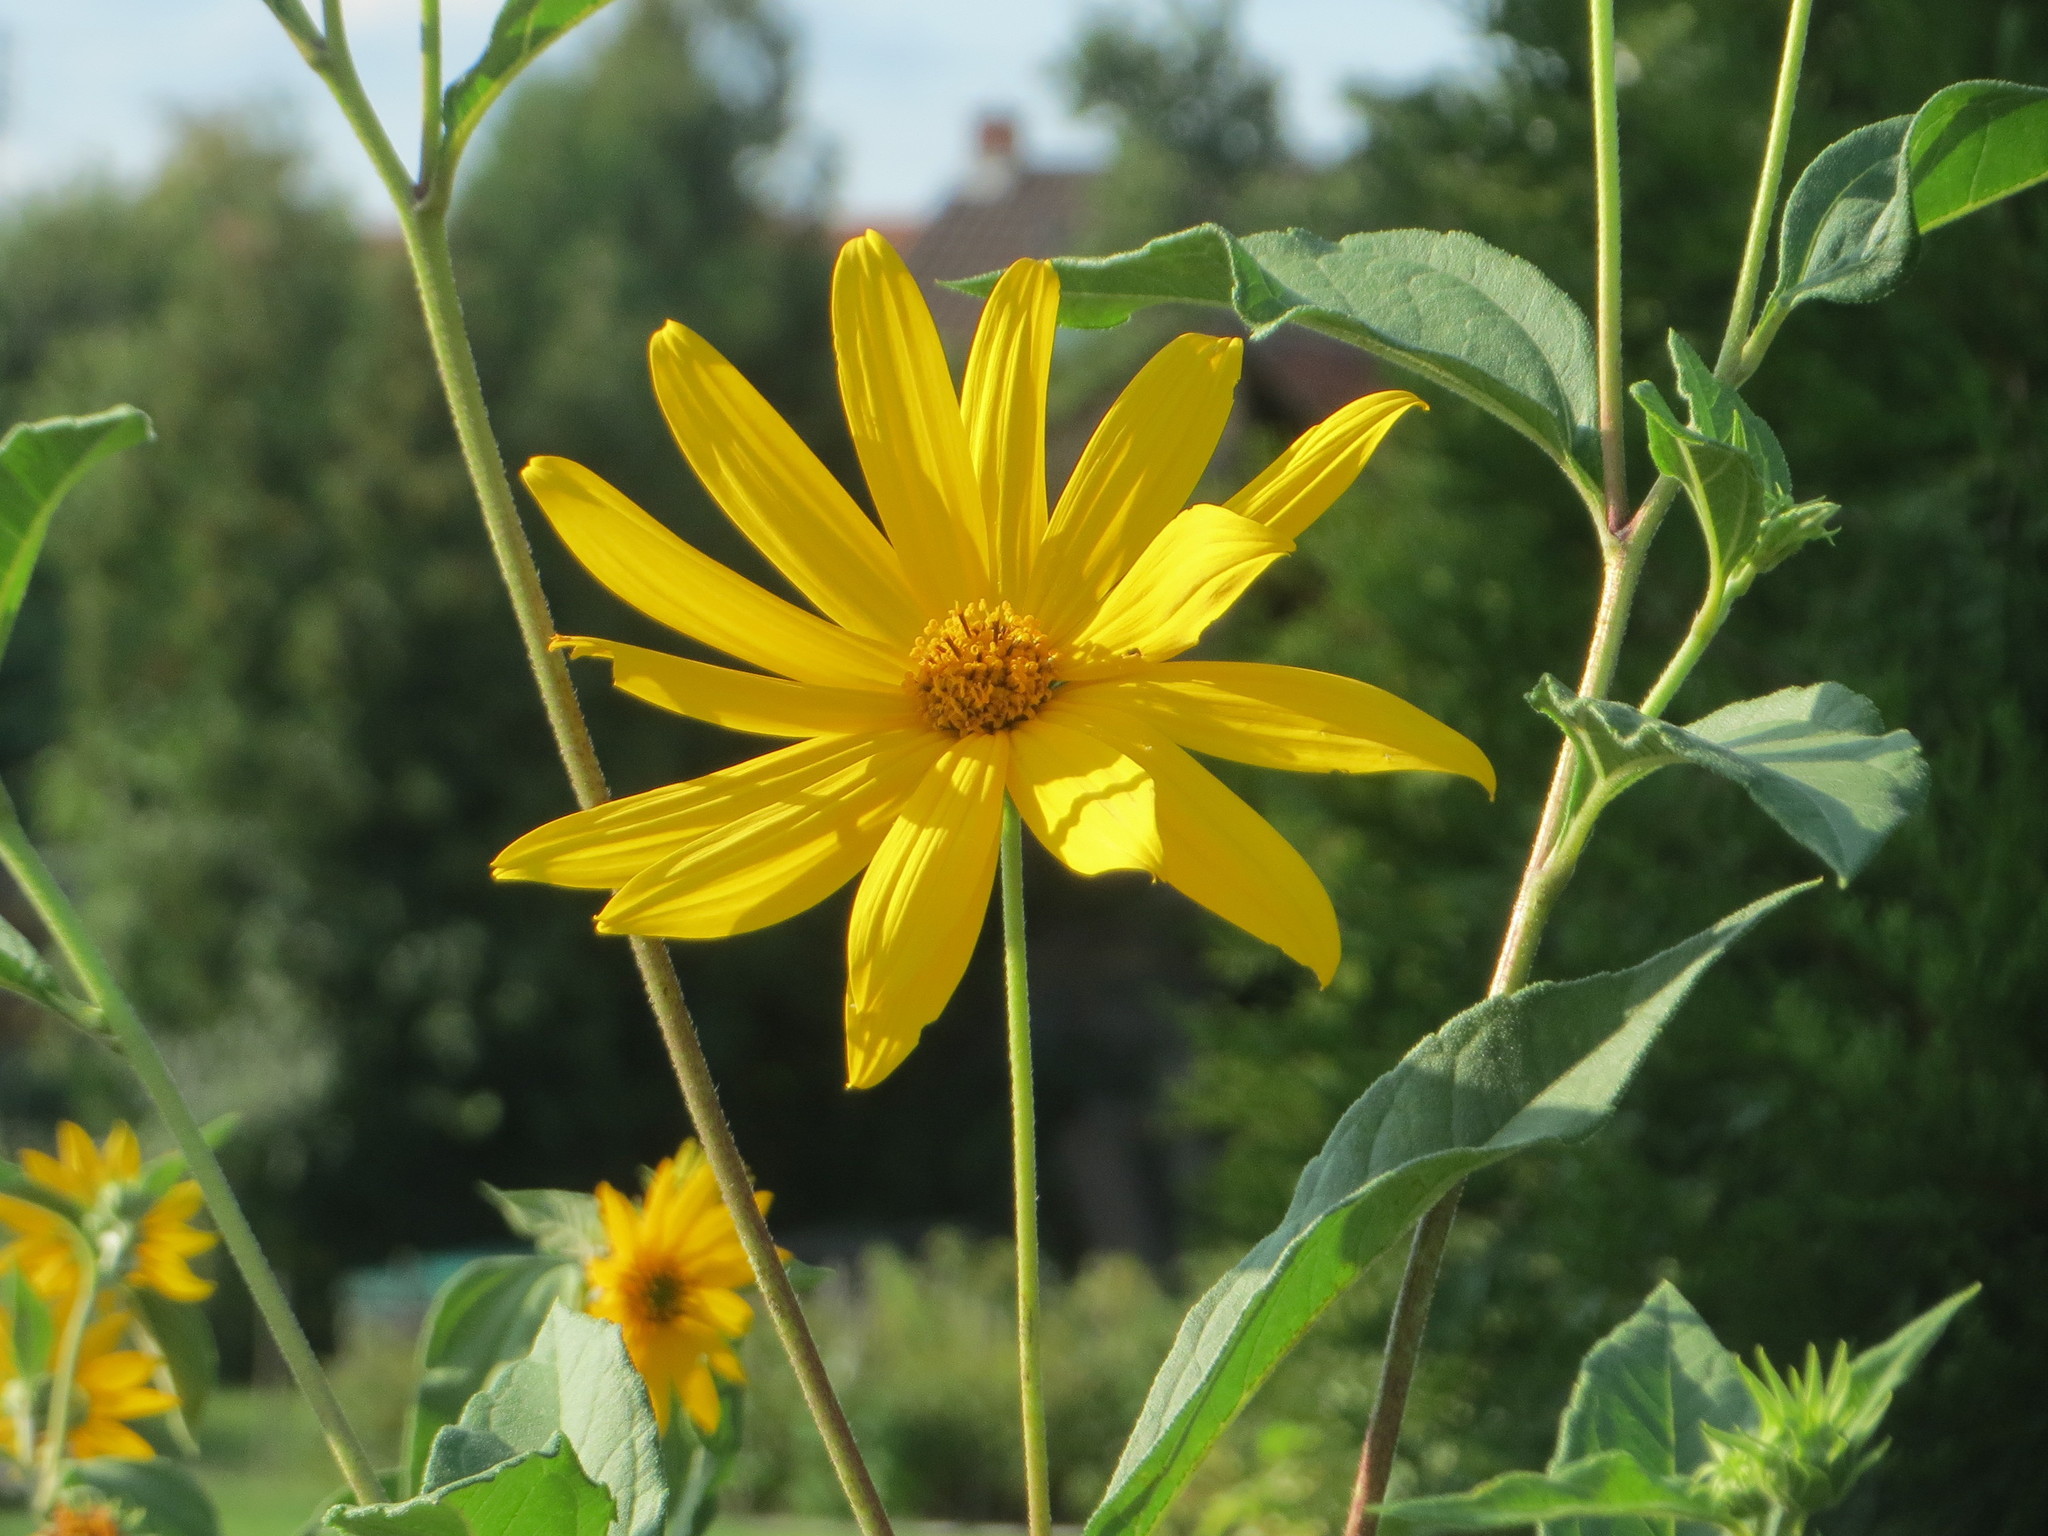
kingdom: Plantae
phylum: Tracheophyta
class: Magnoliopsida
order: Asterales
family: Asteraceae
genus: Helianthus
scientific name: Helianthus tuberosus
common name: Jerusalem artichoke
